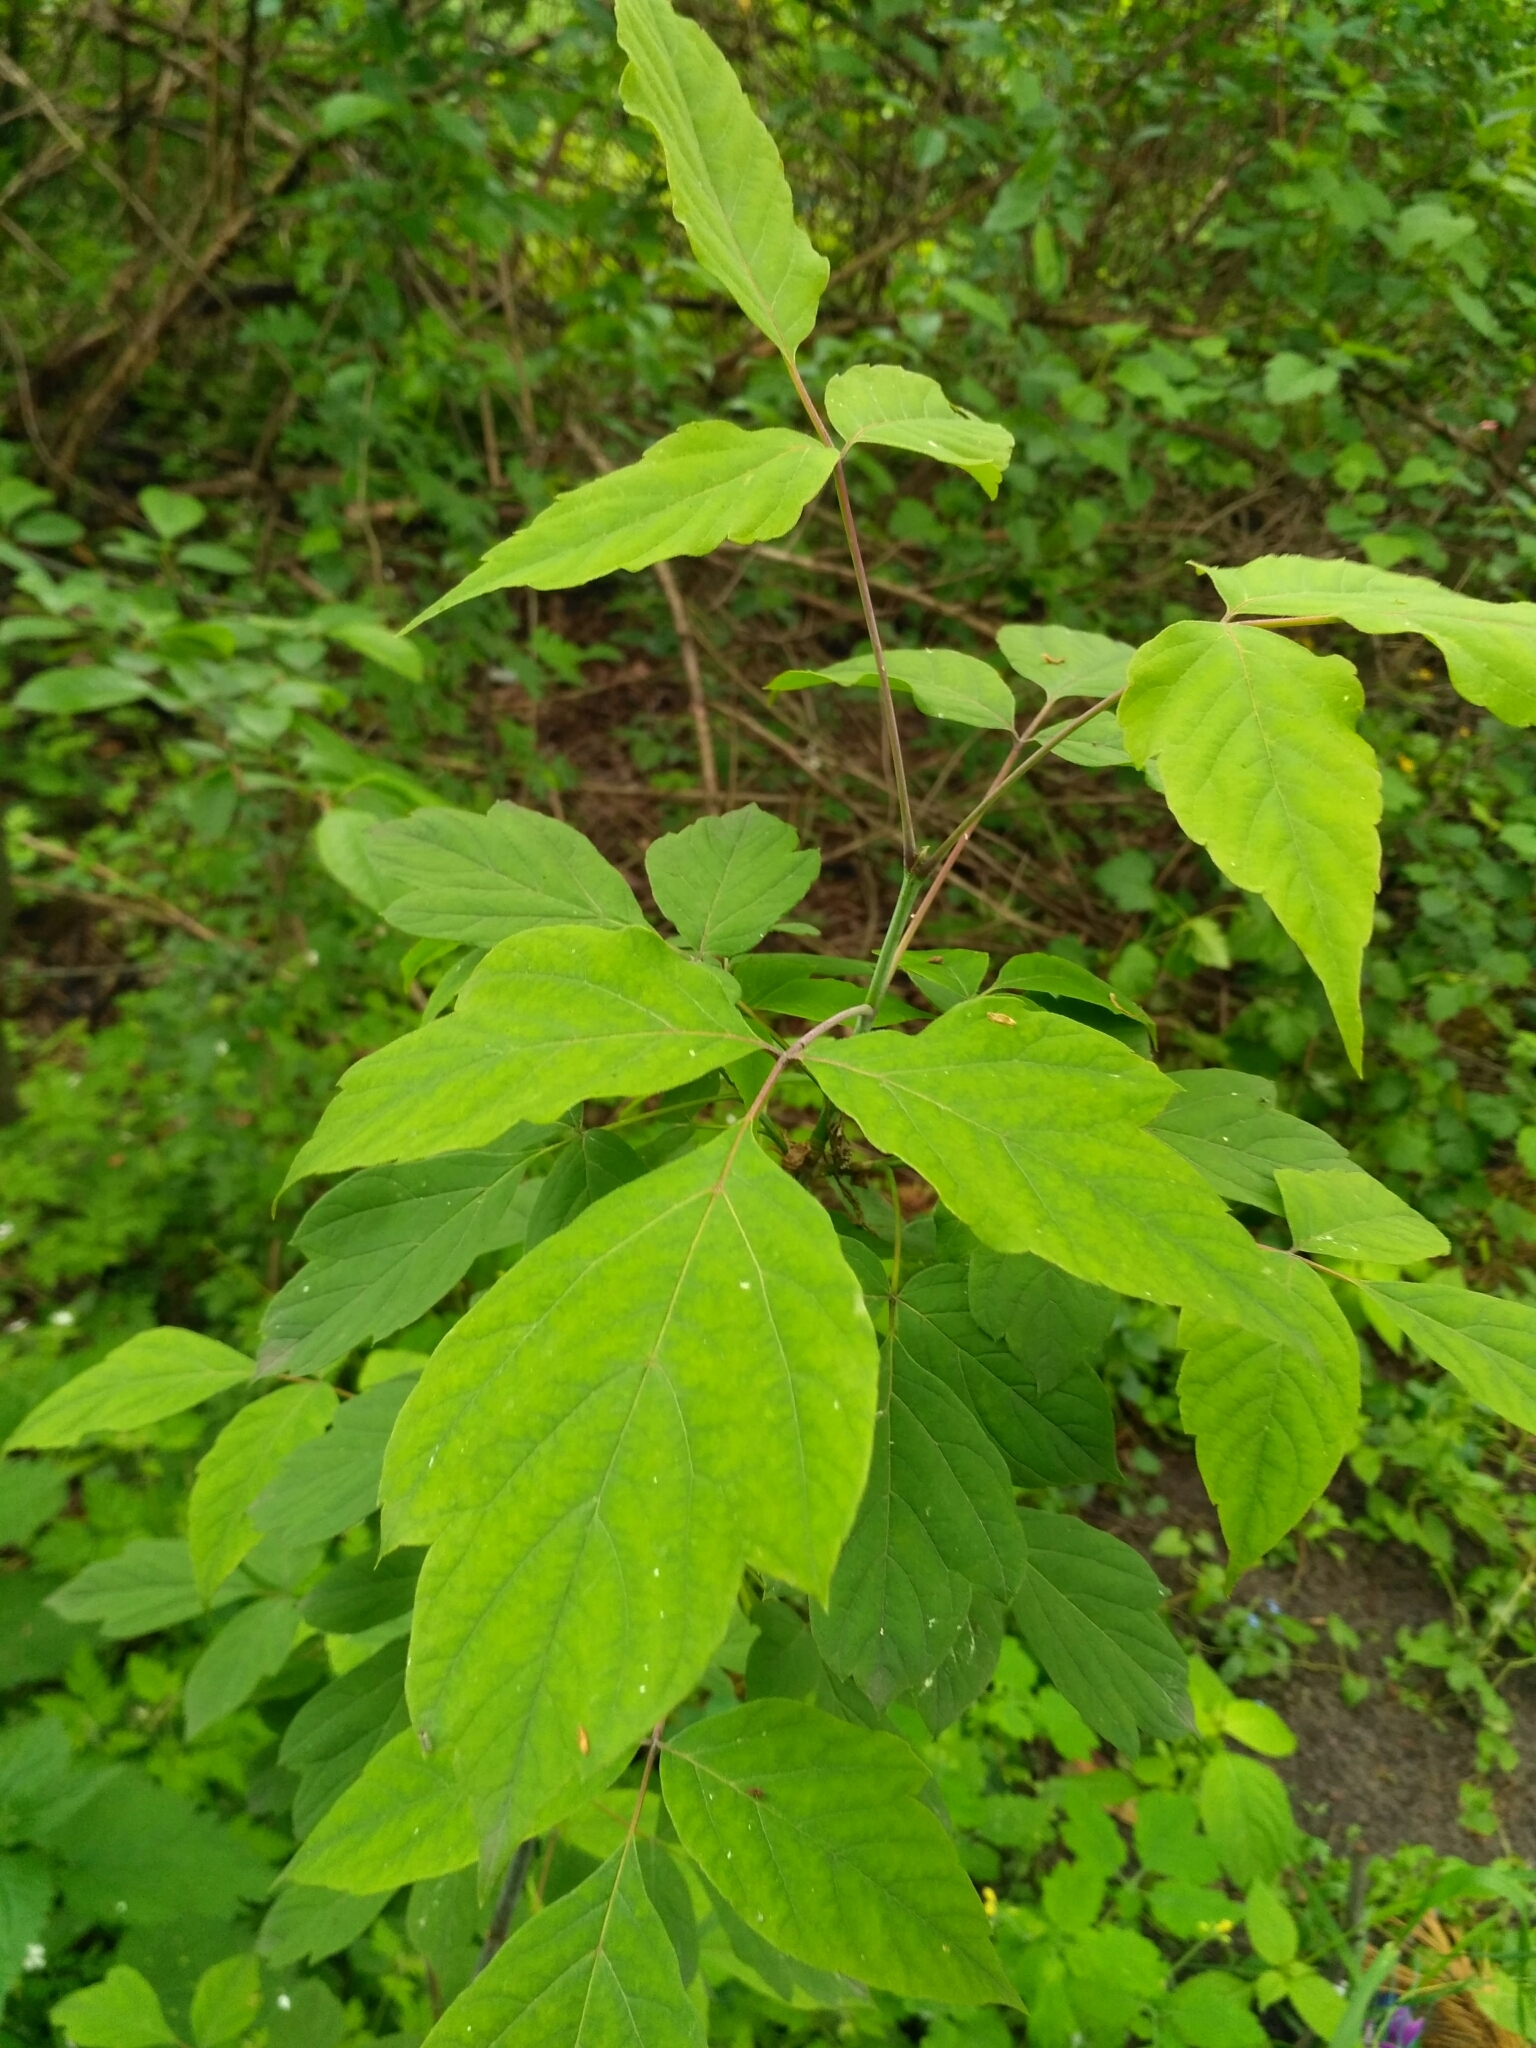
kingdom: Plantae
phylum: Tracheophyta
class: Magnoliopsida
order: Sapindales
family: Sapindaceae
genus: Acer
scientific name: Acer negundo
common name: Ashleaf maple
